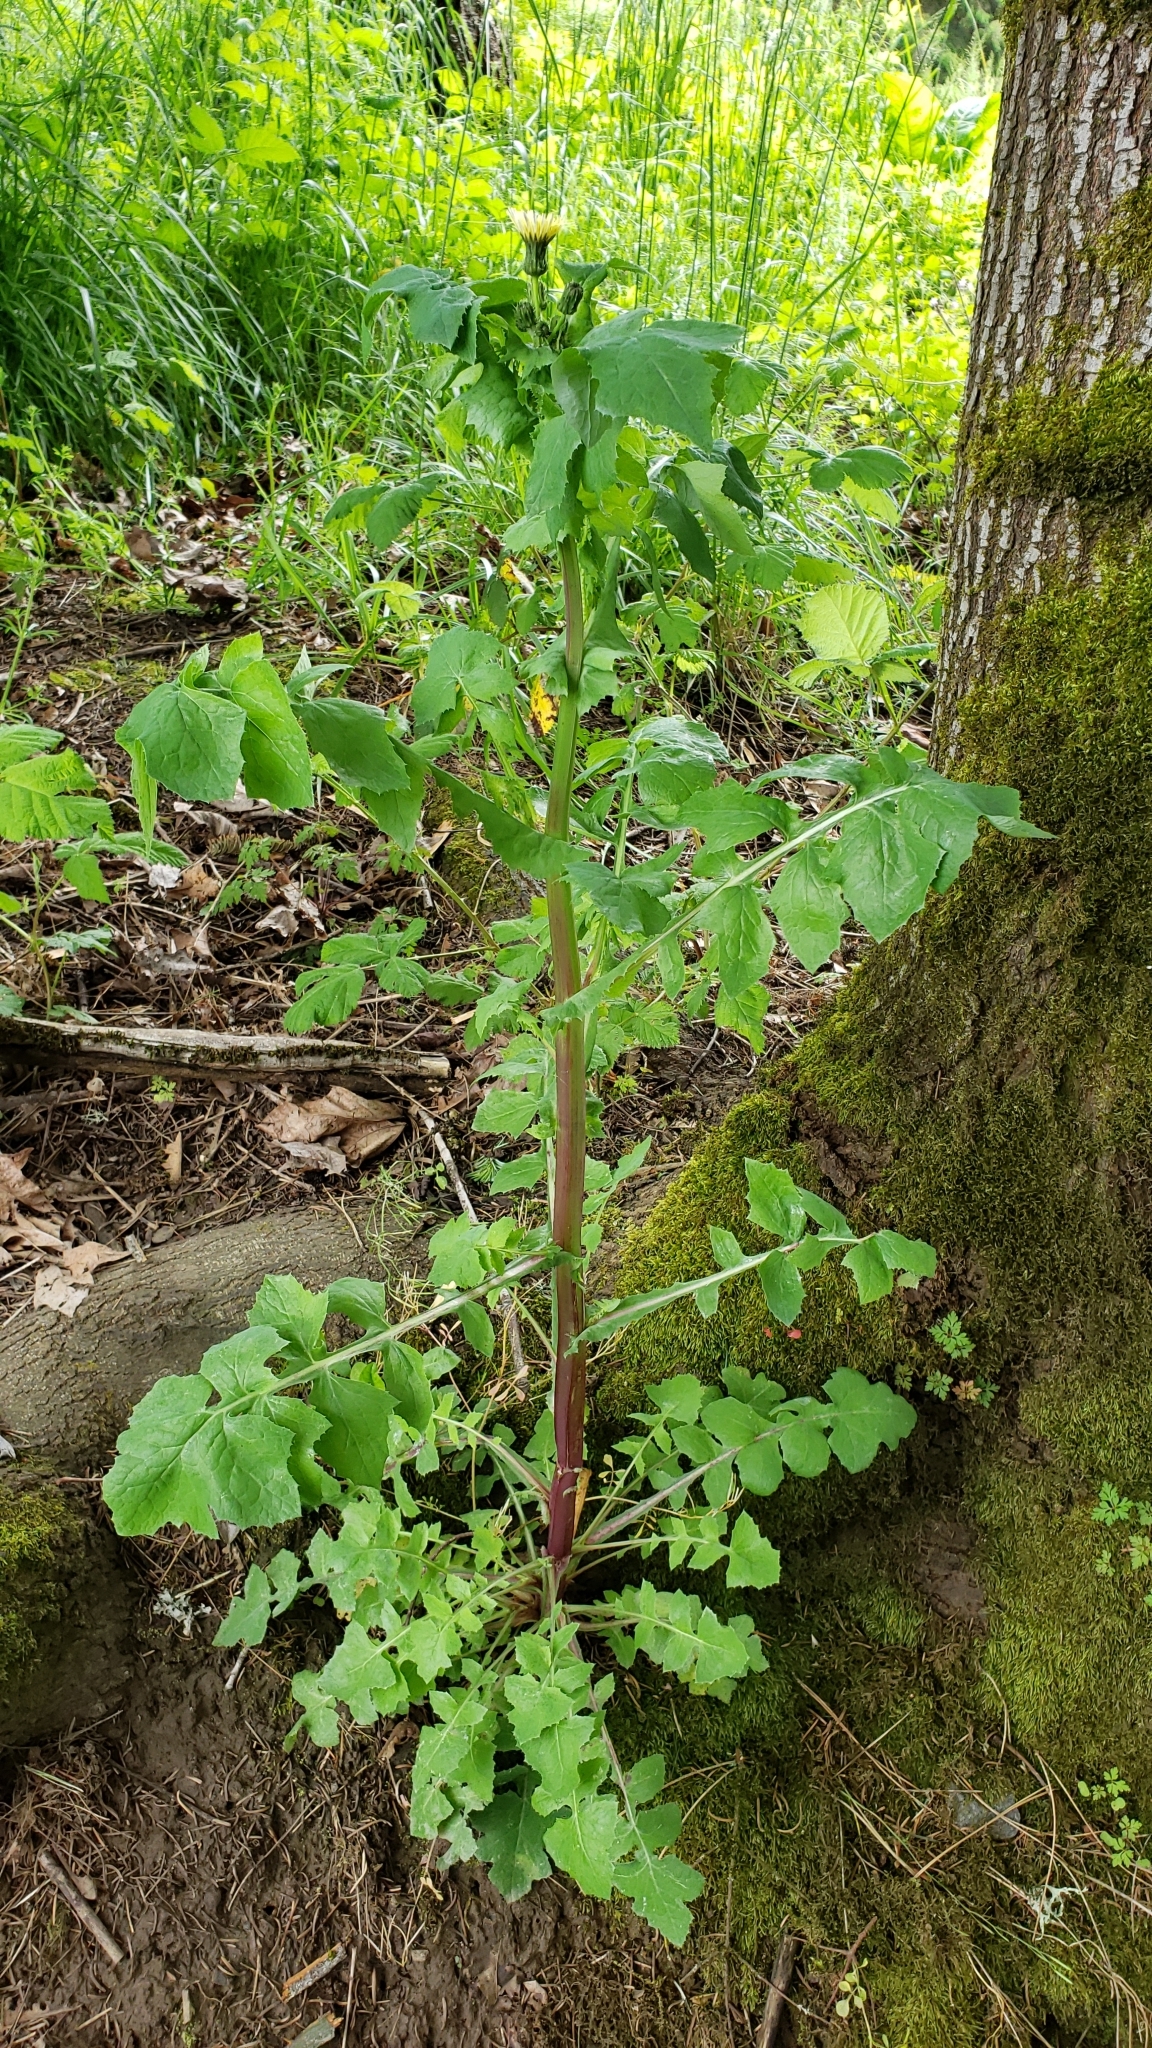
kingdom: Plantae
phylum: Tracheophyta
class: Magnoliopsida
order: Asterales
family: Asteraceae
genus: Sonchus
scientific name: Sonchus oleraceus
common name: Common sowthistle
